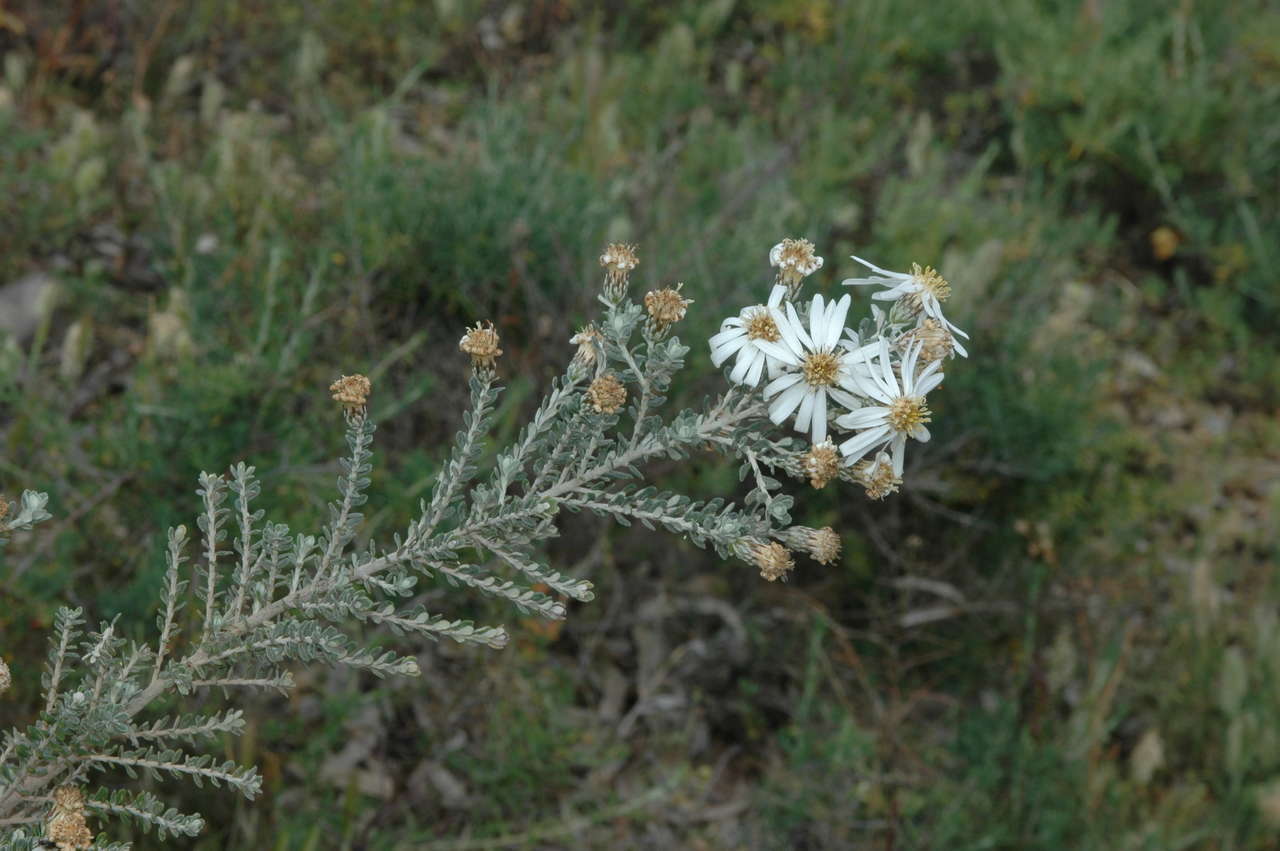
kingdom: Plantae
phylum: Tracheophyta
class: Magnoliopsida
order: Asterales
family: Asteraceae
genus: Olearia
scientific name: Olearia pimeleoides
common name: Showy daisybush
